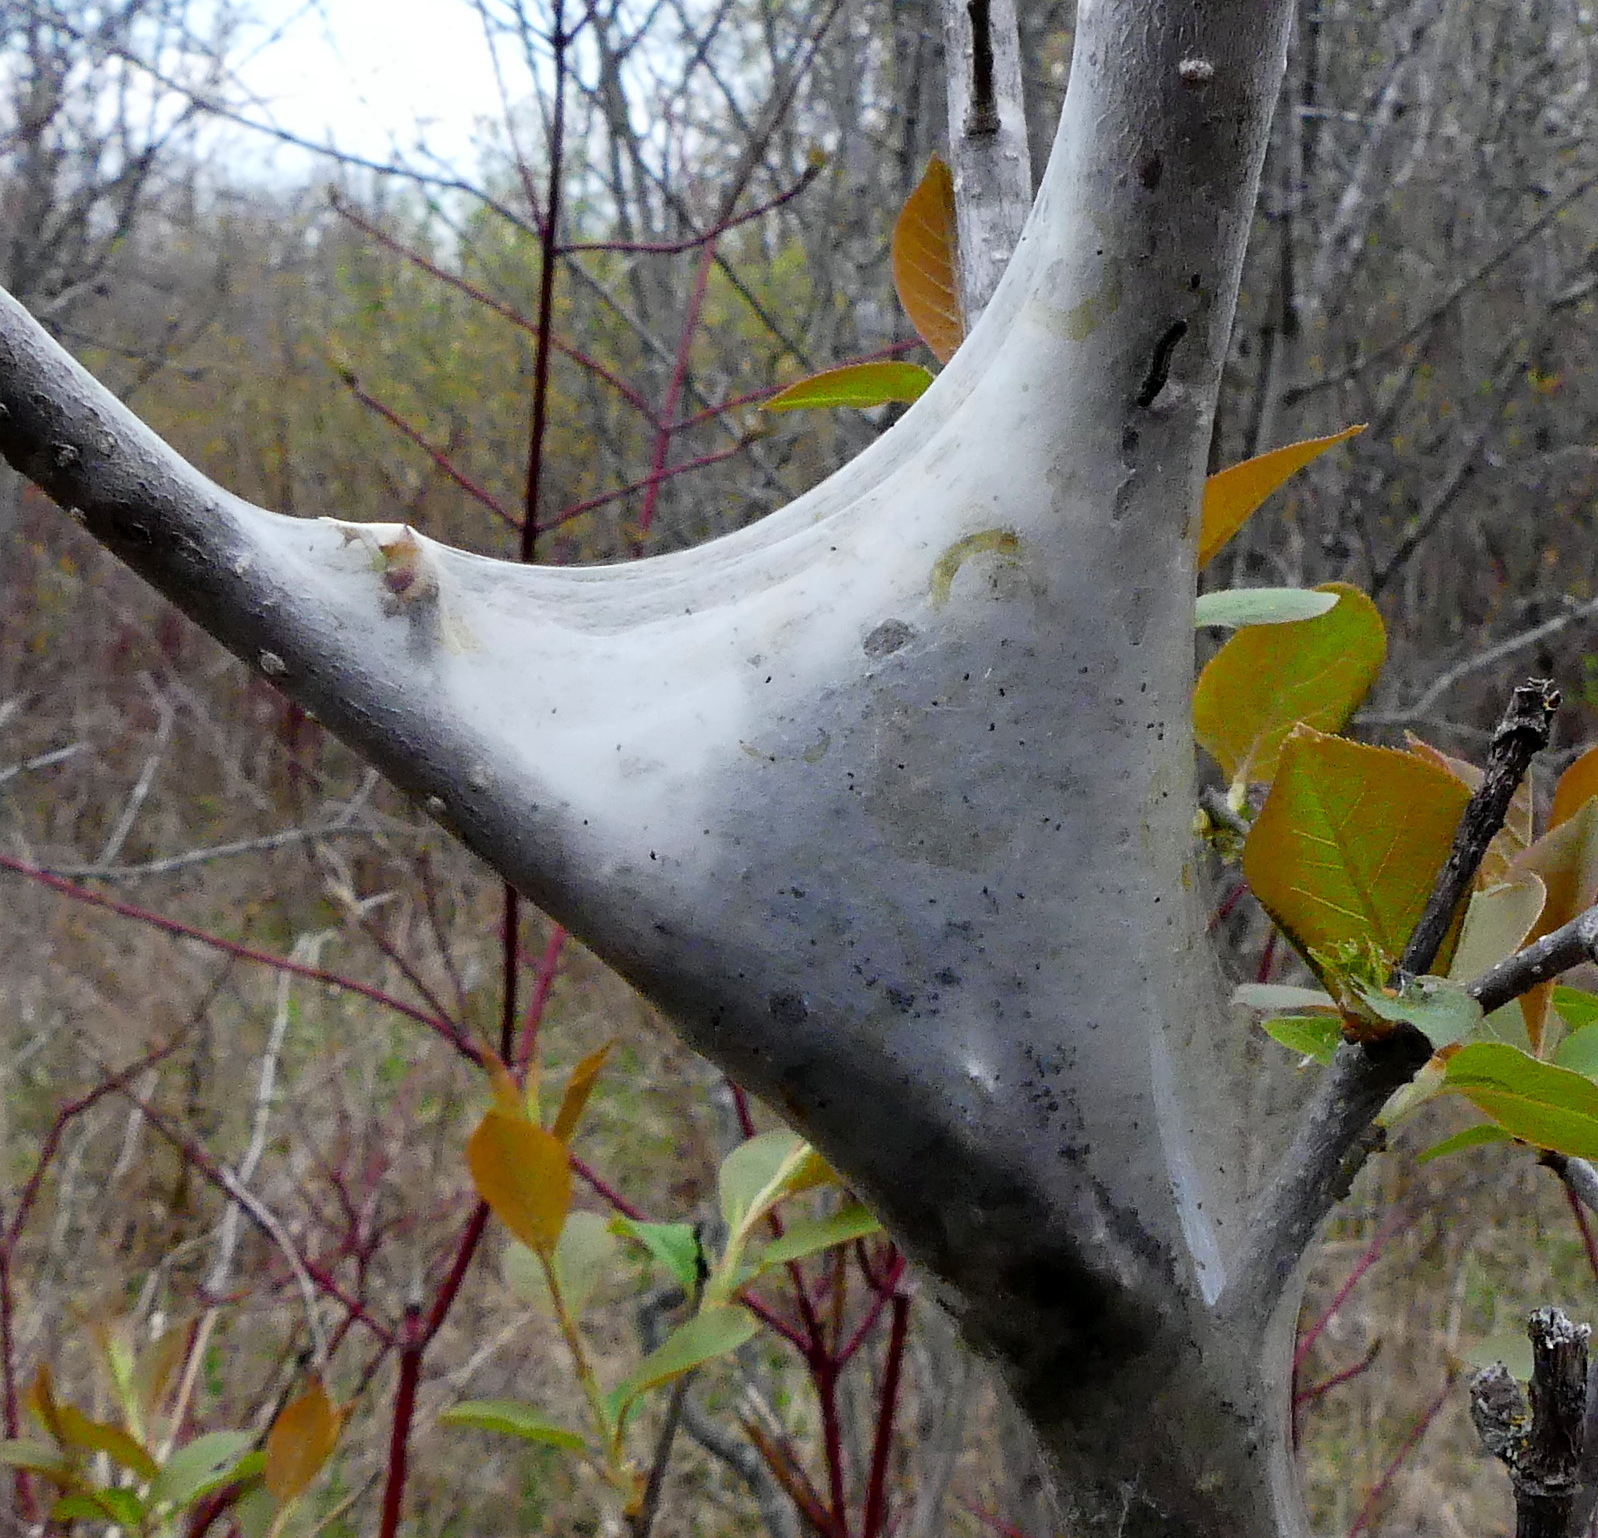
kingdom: Animalia
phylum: Arthropoda
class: Insecta
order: Lepidoptera
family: Lasiocampidae
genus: Malacosoma
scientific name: Malacosoma americana
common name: Eastern tent caterpillar moth
